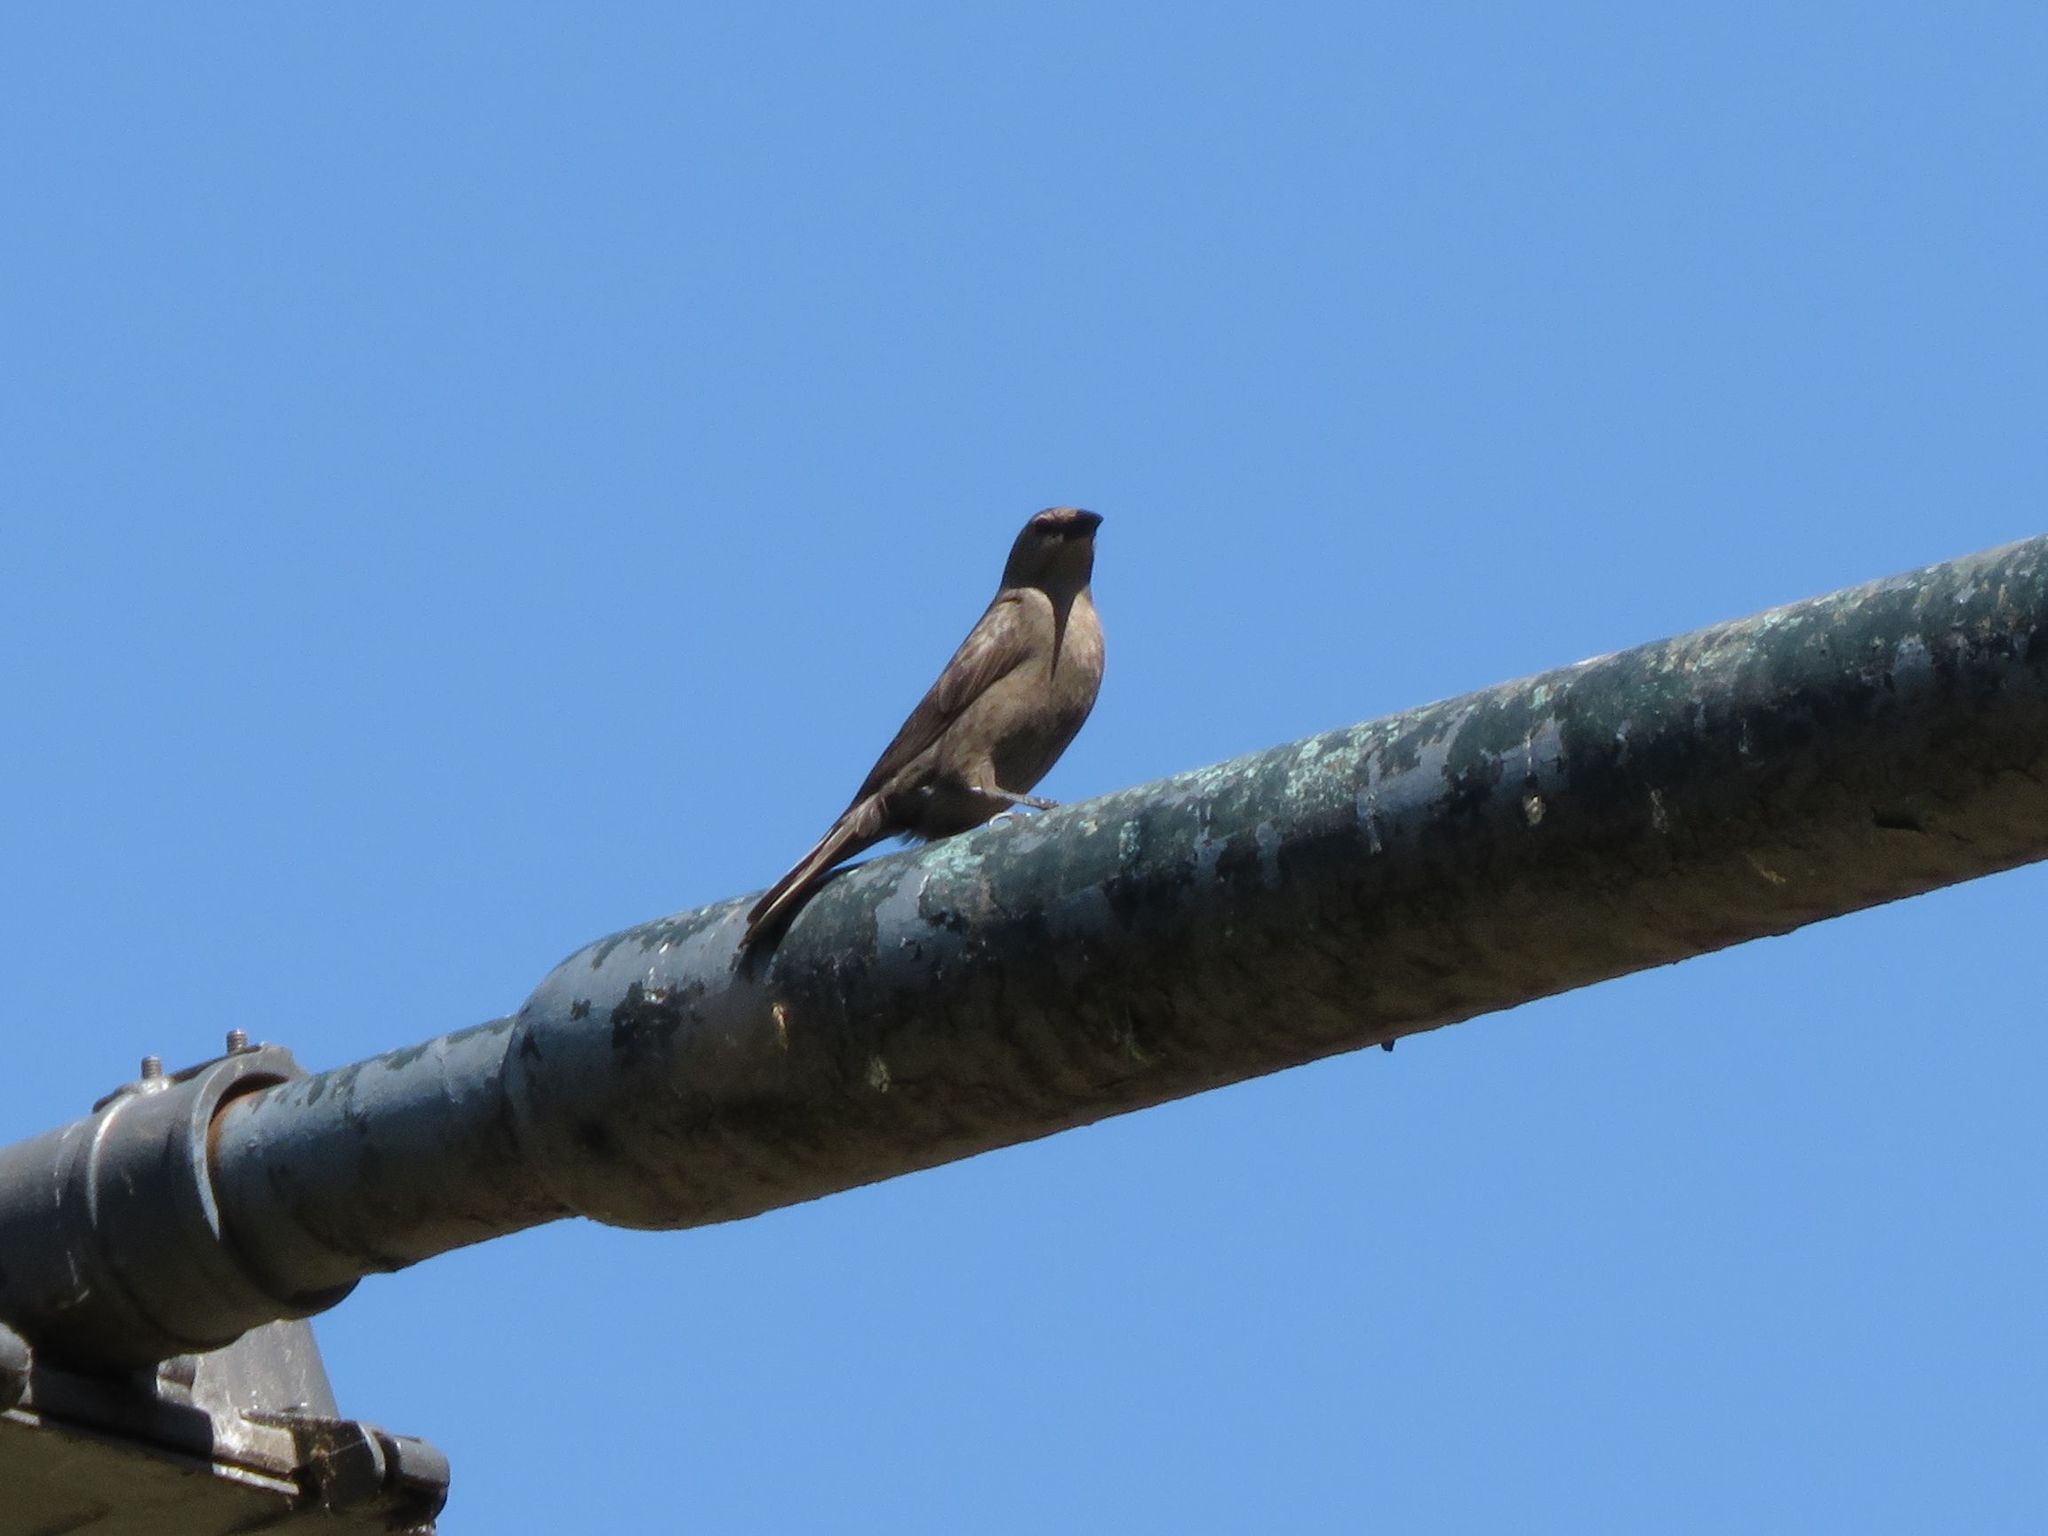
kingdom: Animalia
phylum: Chordata
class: Aves
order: Passeriformes
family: Icteridae
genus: Molothrus
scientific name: Molothrus bonariensis
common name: Shiny cowbird
